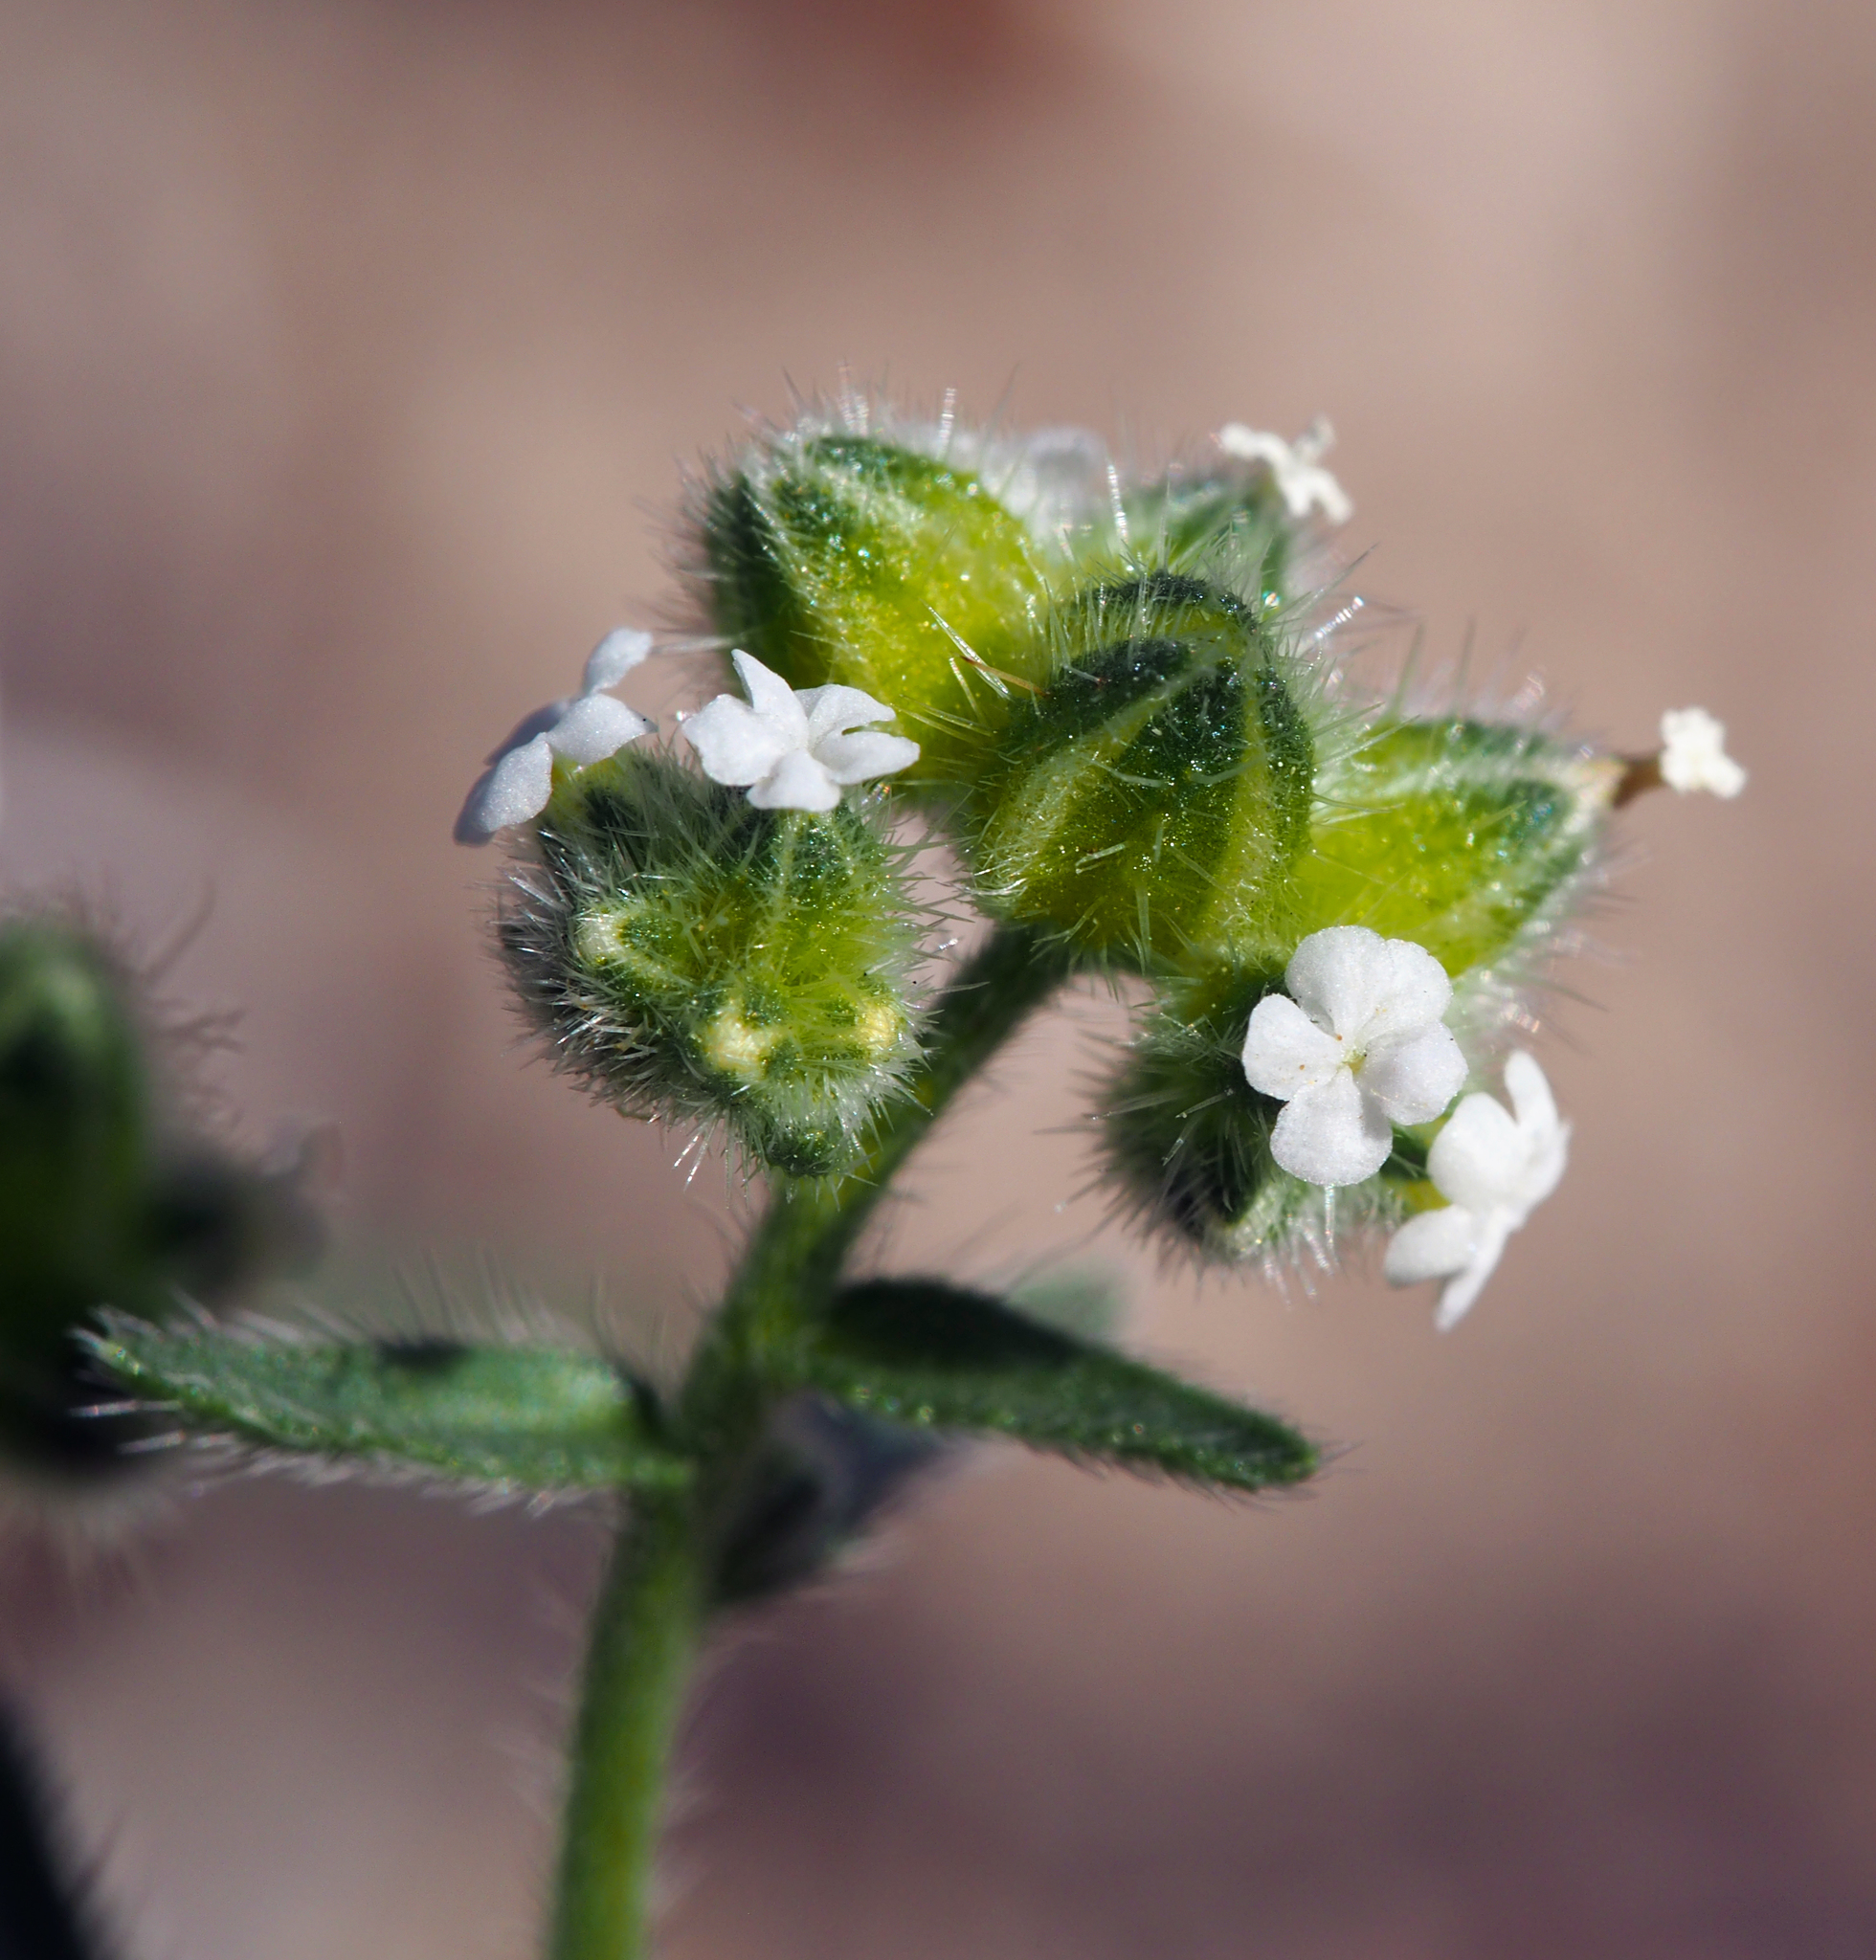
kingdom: Plantae
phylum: Tracheophyta
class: Magnoliopsida
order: Boraginales
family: Boraginaceae
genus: Cryptantha
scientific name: Cryptantha pterocarya
